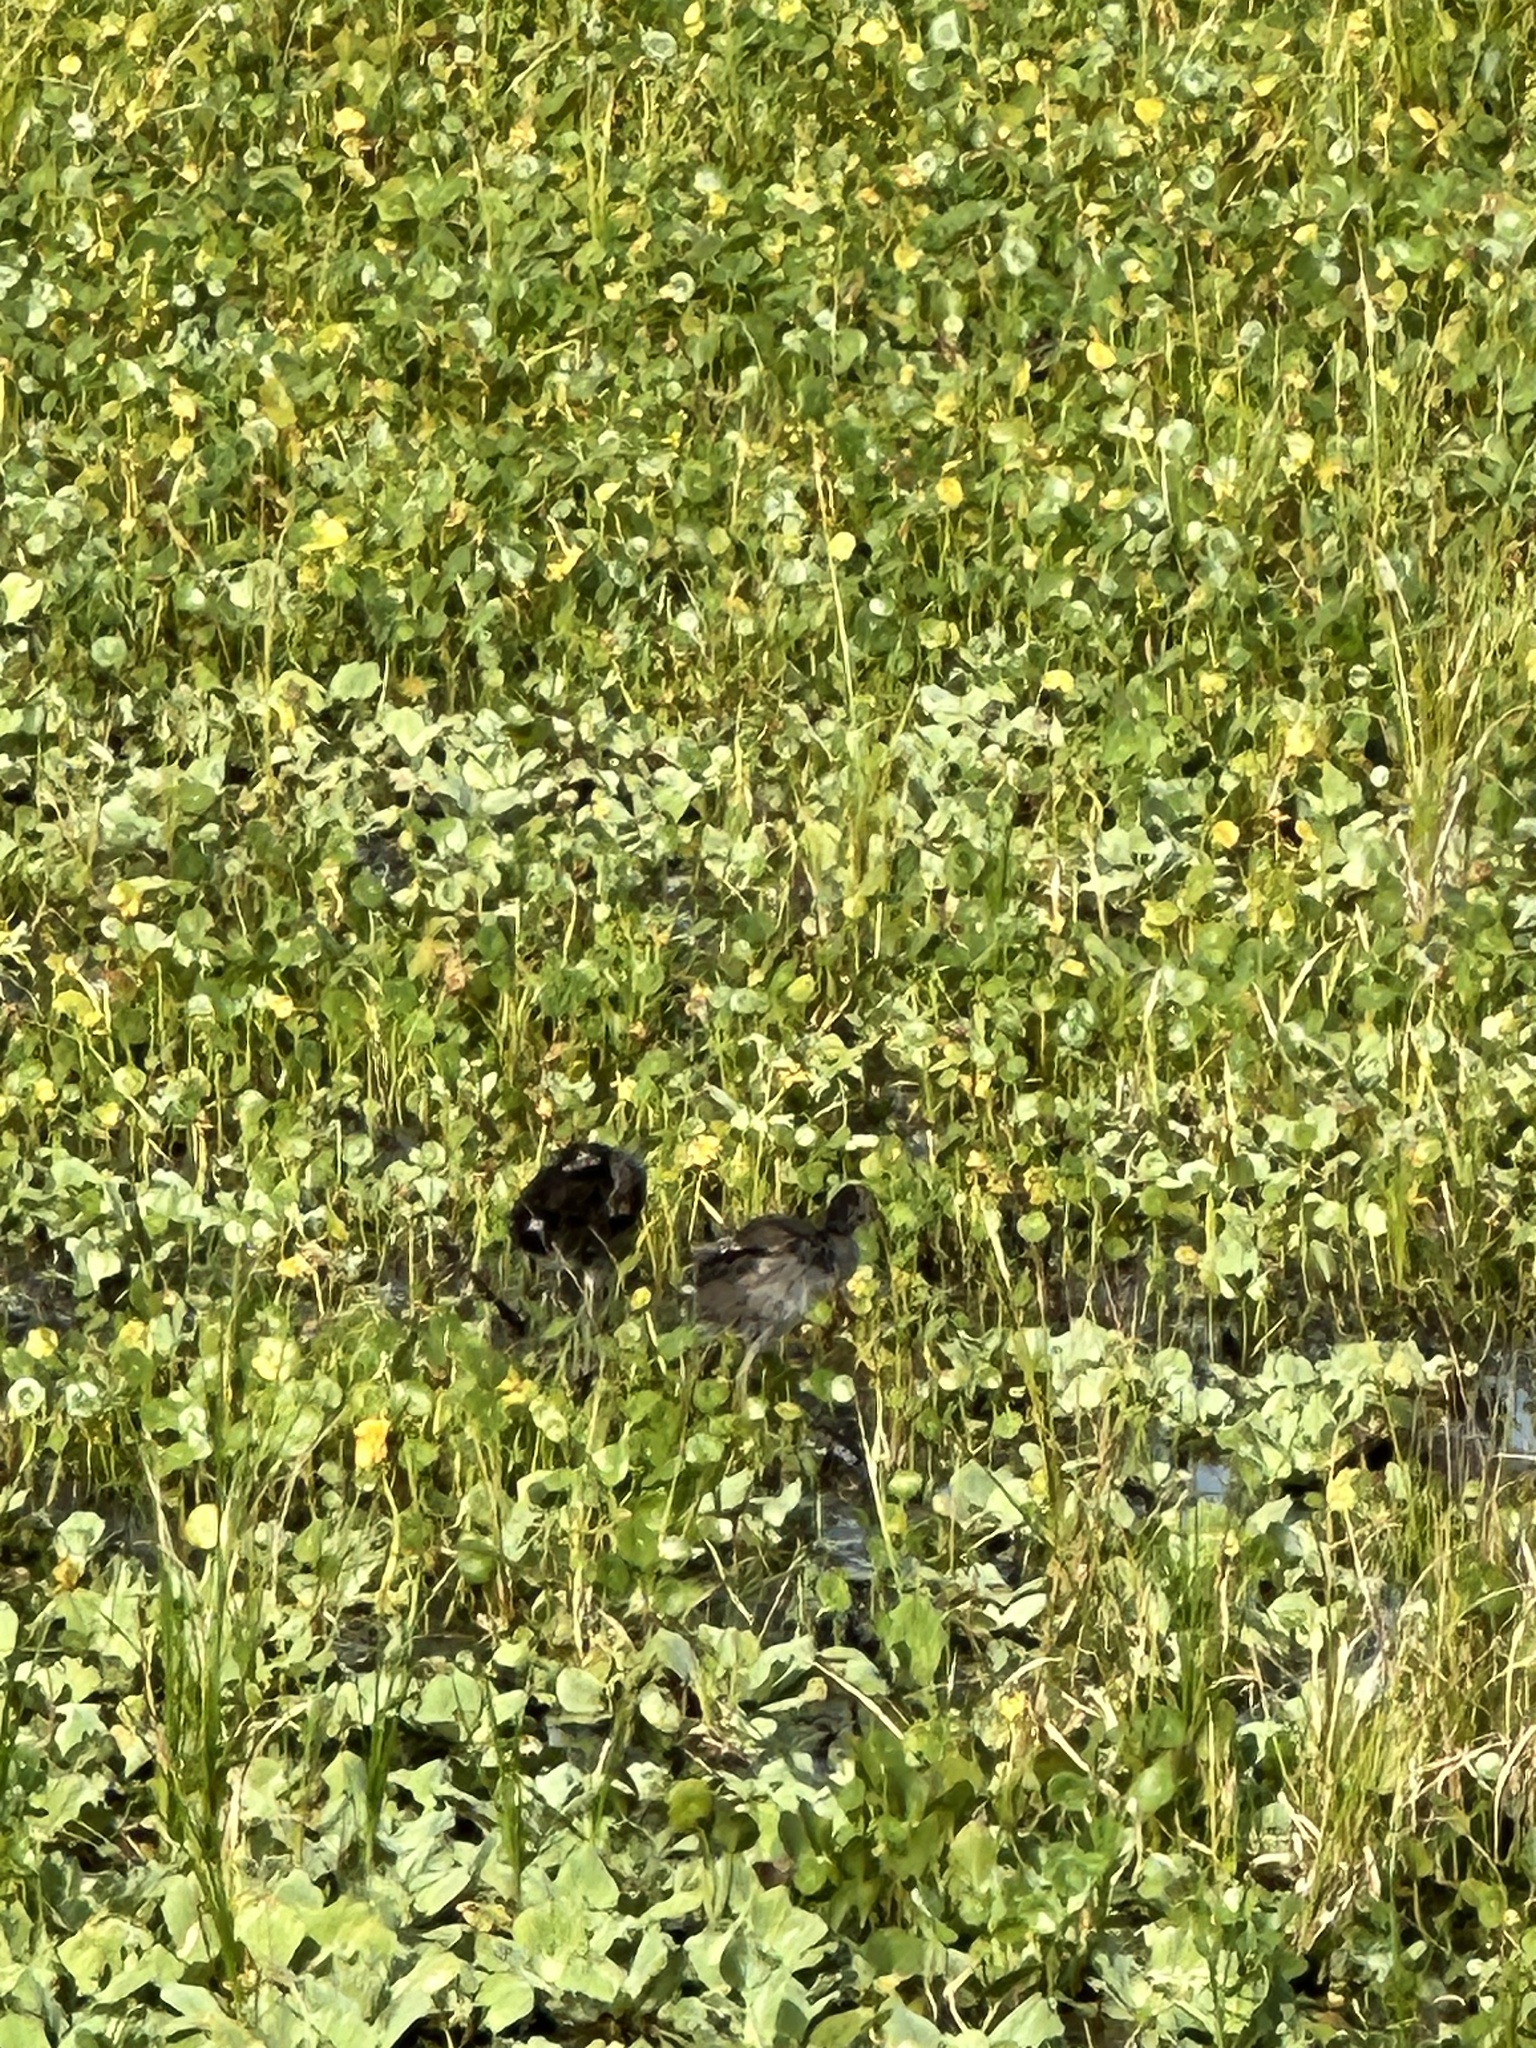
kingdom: Animalia
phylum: Chordata
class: Aves
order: Gruiformes
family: Rallidae
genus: Gallinula
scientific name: Gallinula chloropus
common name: Common moorhen
